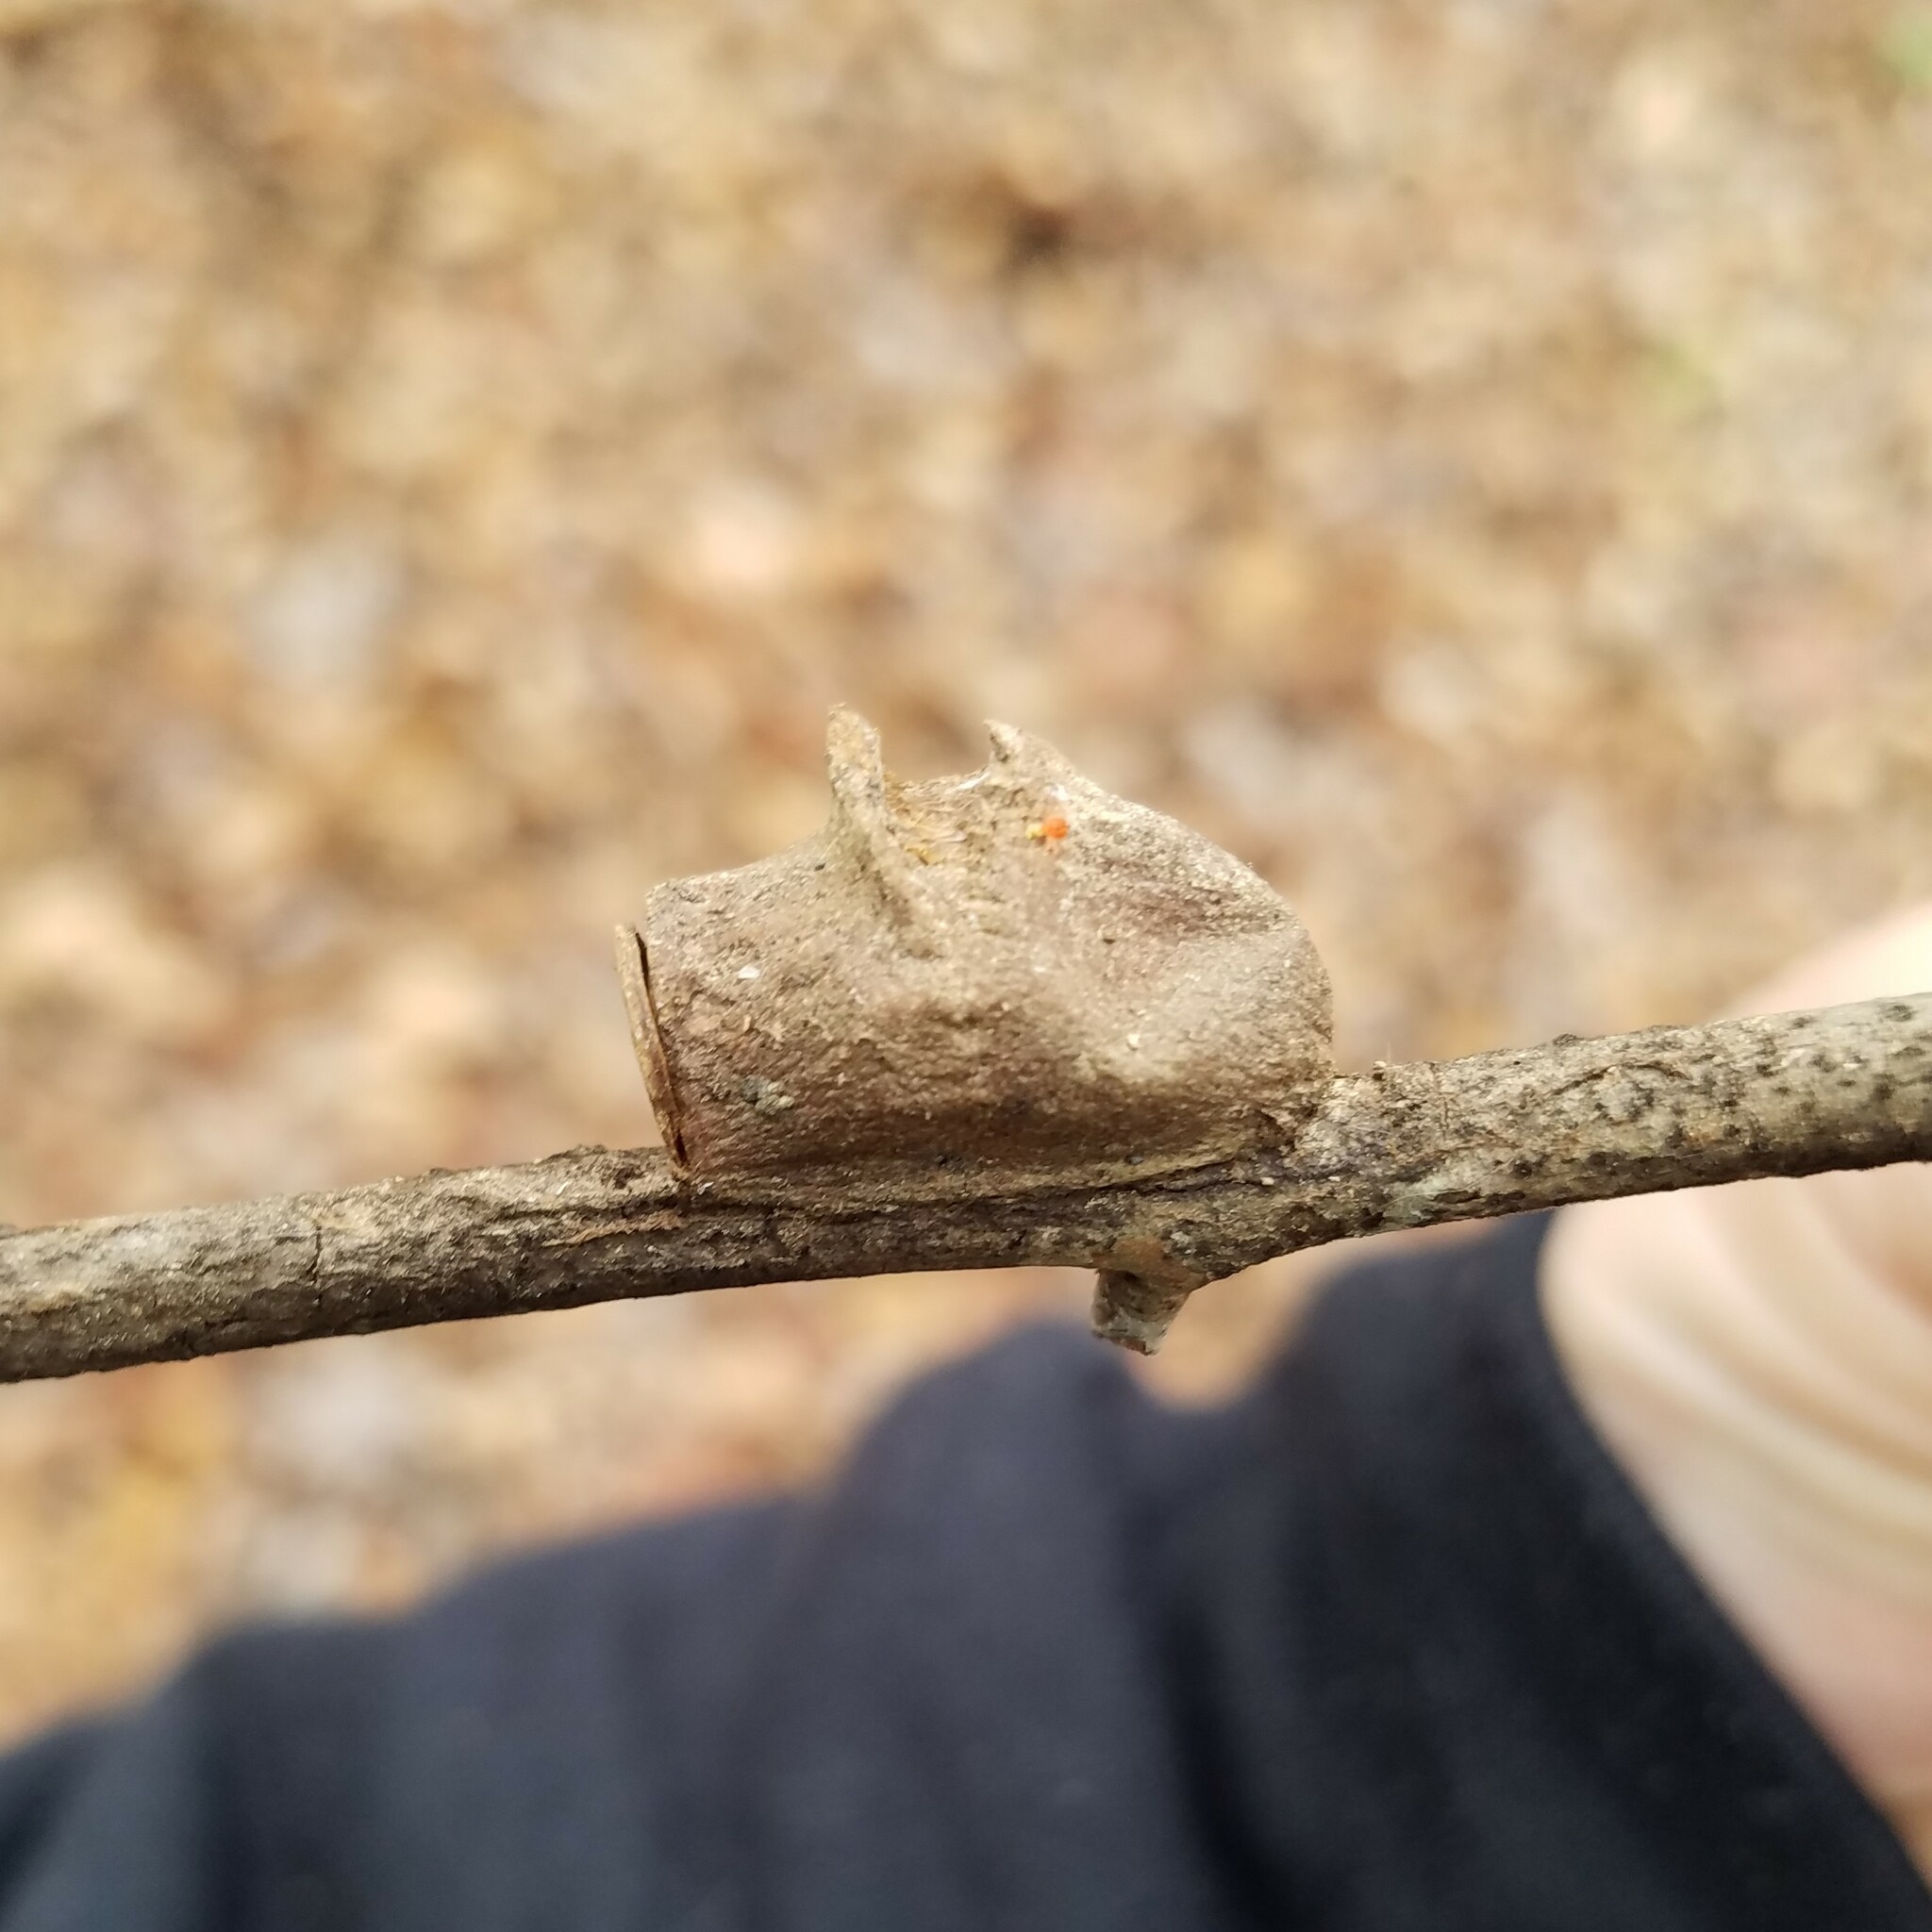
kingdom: Animalia
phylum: Arthropoda
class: Insecta
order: Lepidoptera
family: Megalopygidae
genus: Megalopyge
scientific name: Megalopyge
